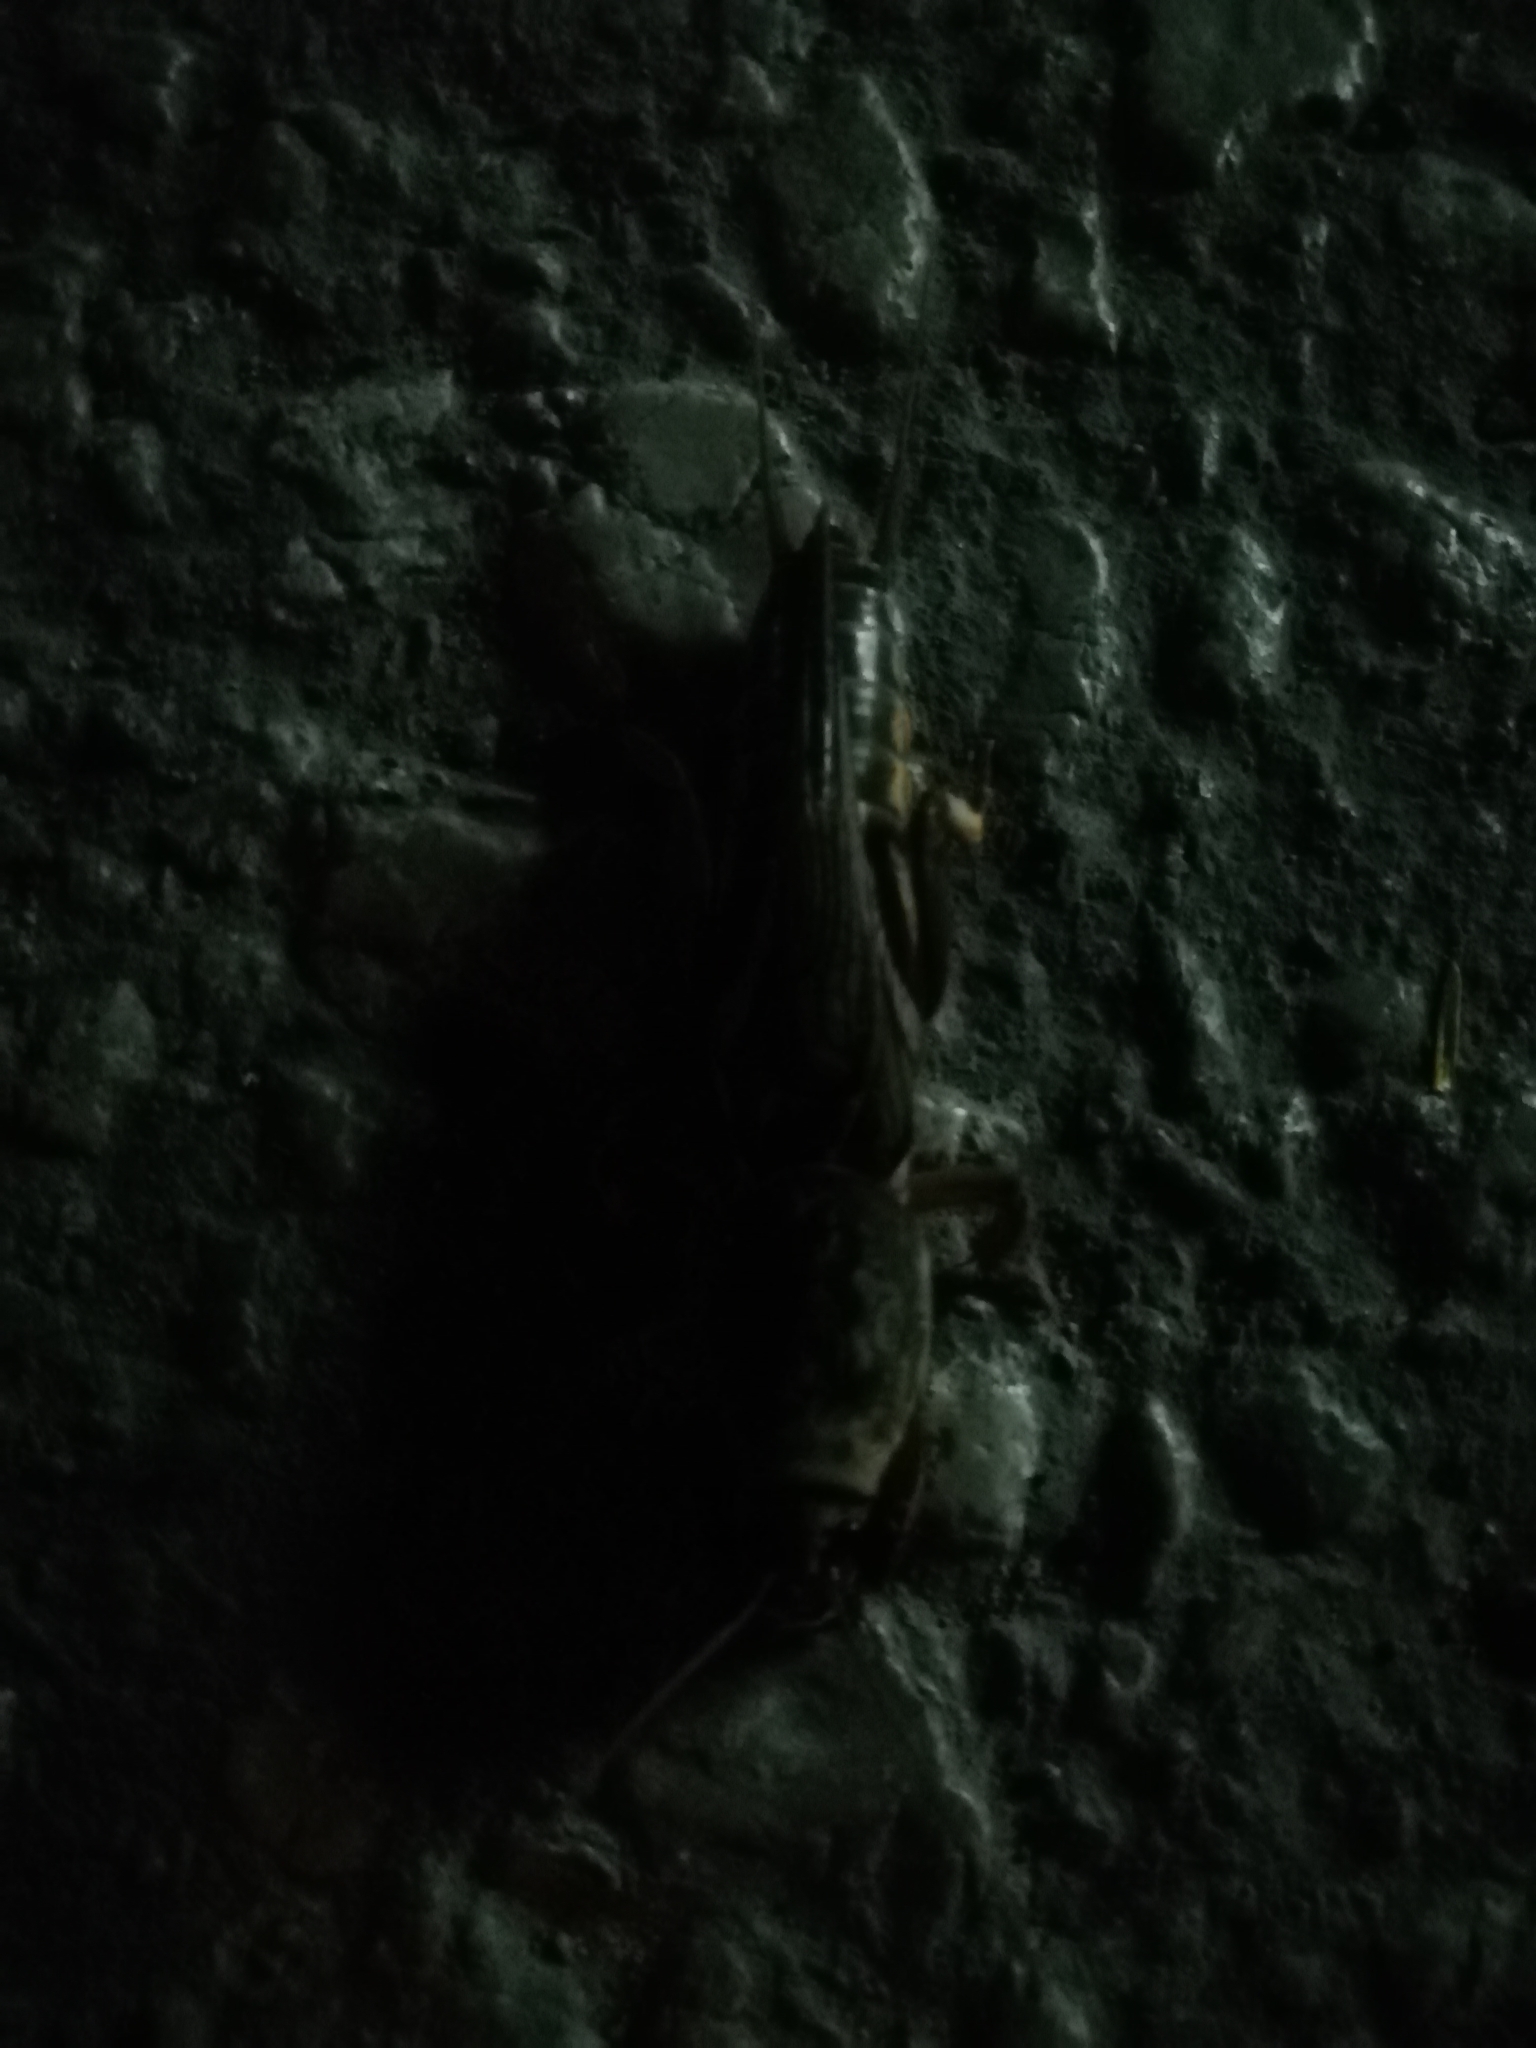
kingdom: Animalia
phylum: Arthropoda
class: Insecta
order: Orthoptera
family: Gryllotalpidae
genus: Gryllotalpa
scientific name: Gryllotalpa gryllotalpa
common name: European mole cricket
